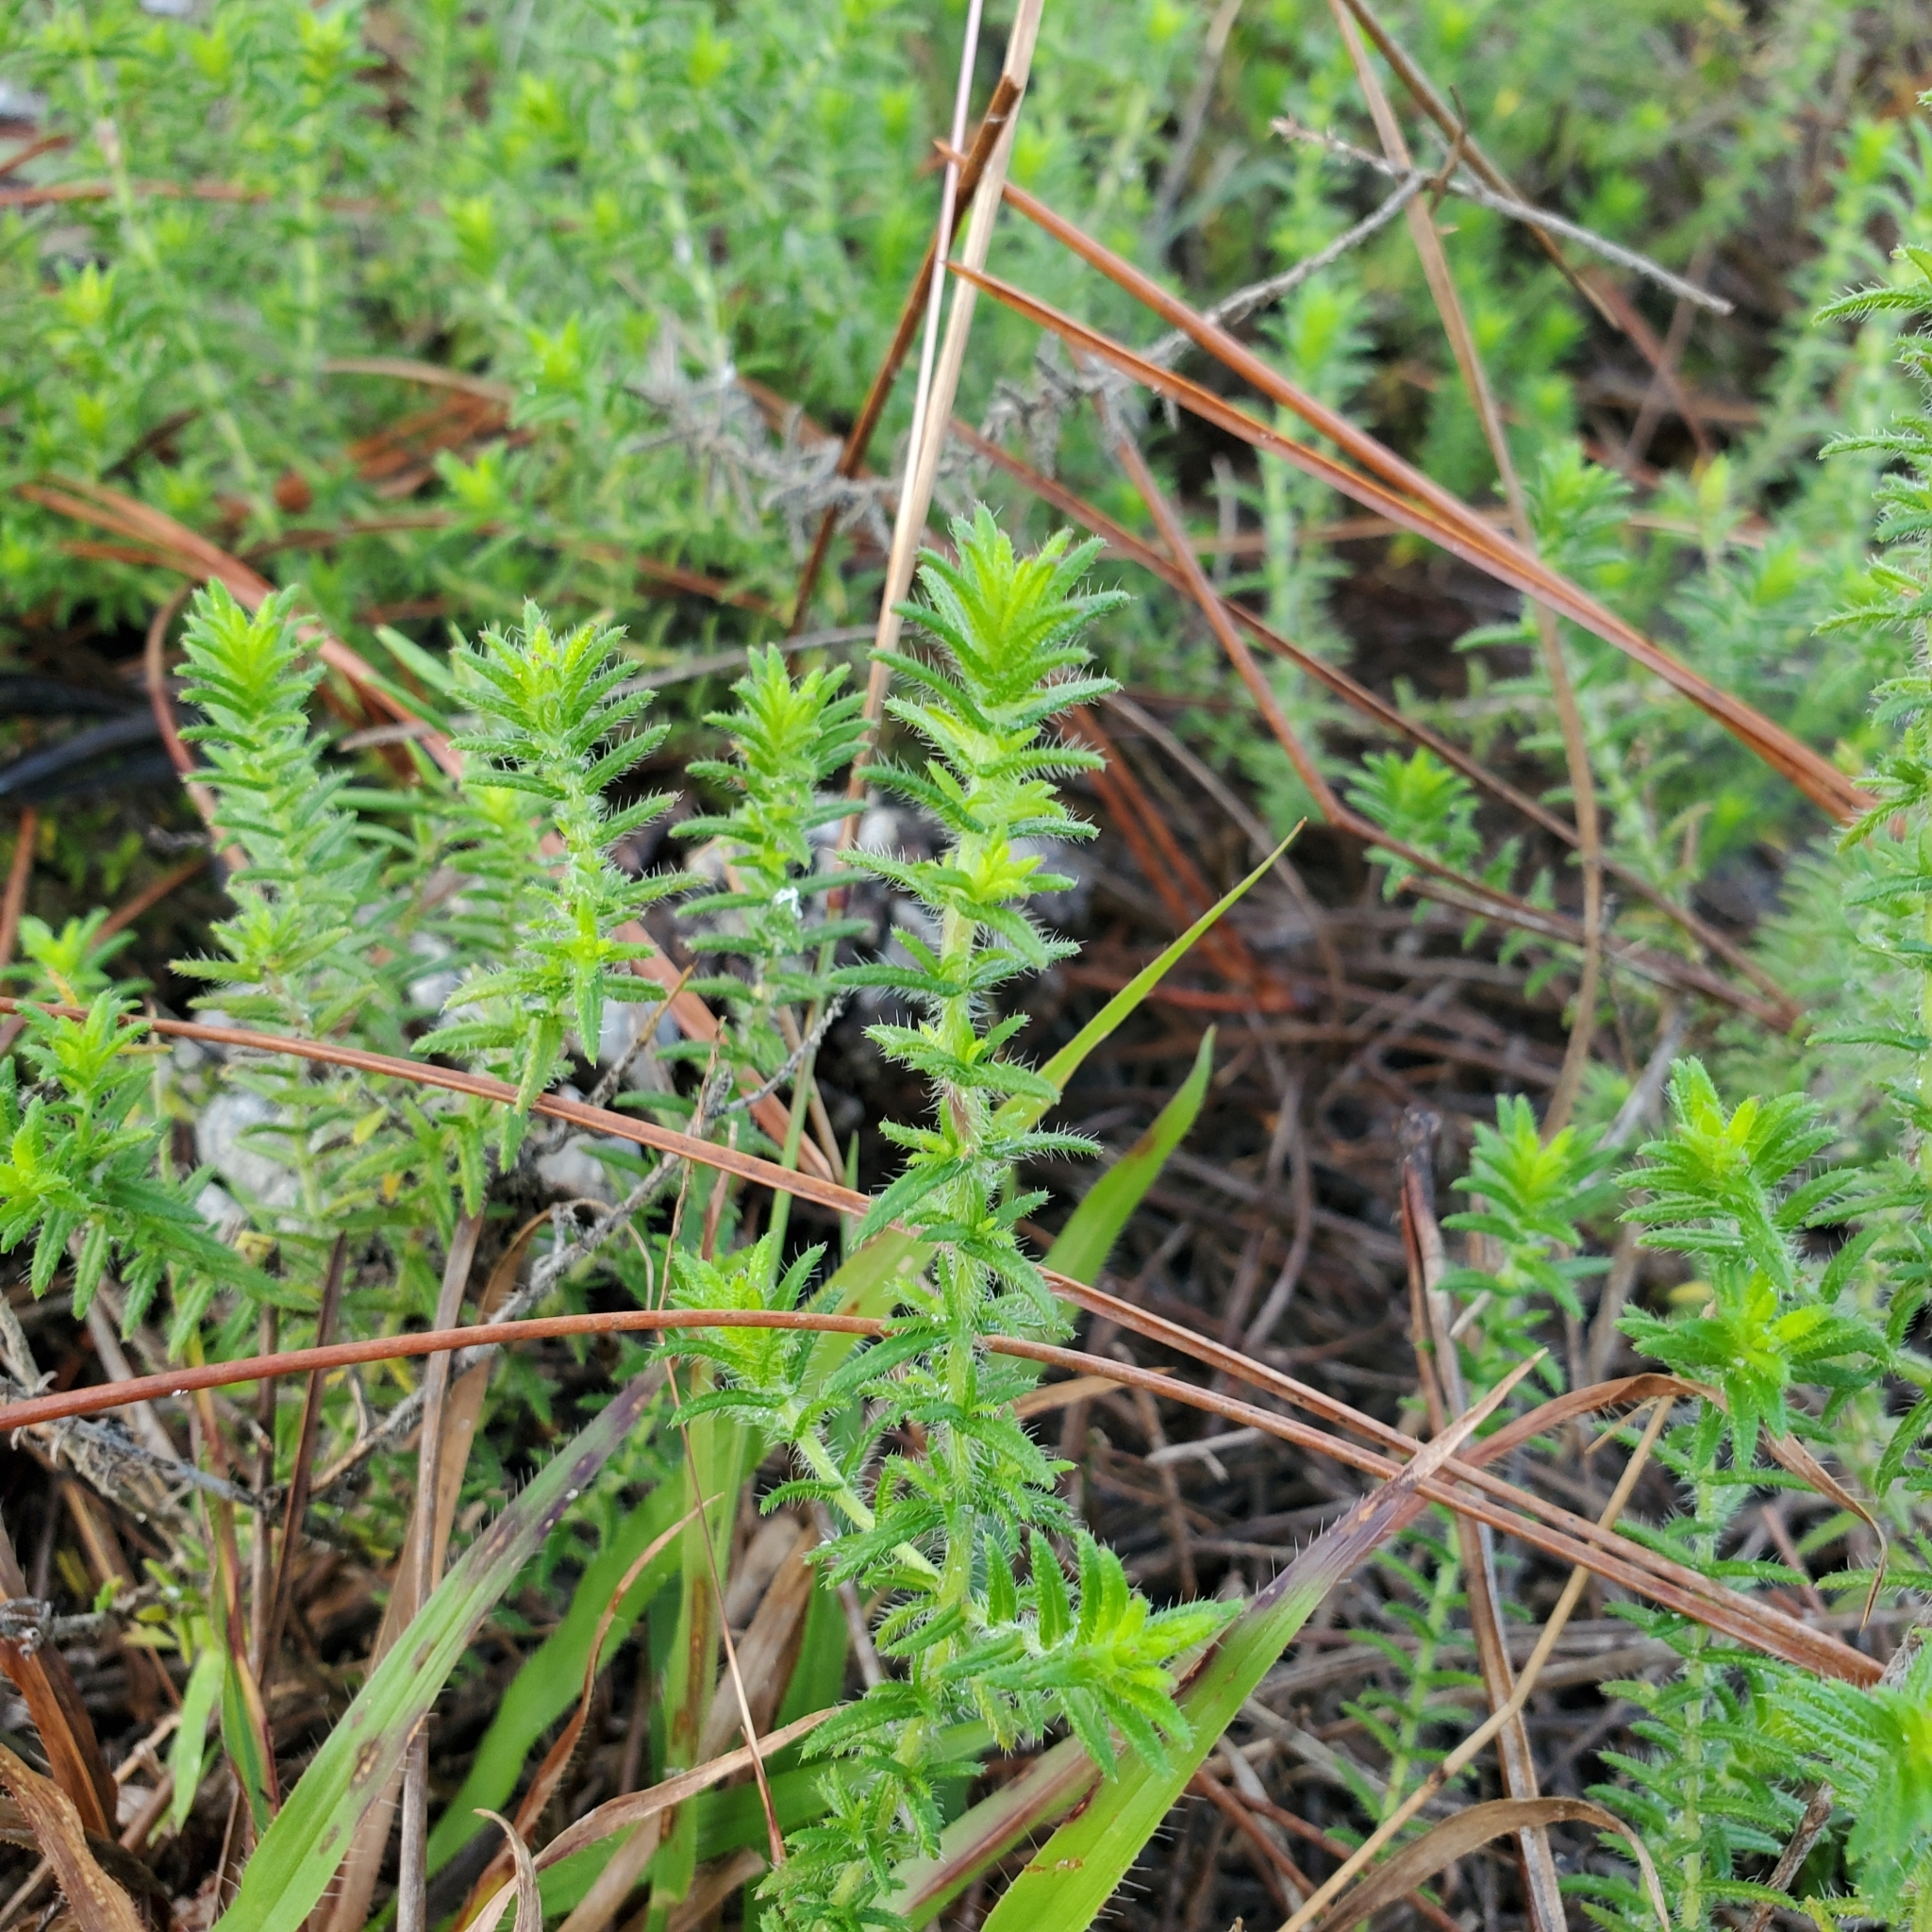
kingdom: Plantae
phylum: Tracheophyta
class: Magnoliopsida
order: Lamiales
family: Lamiaceae
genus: Piloblephis
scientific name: Piloblephis rigida
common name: Wild pennyroyal
